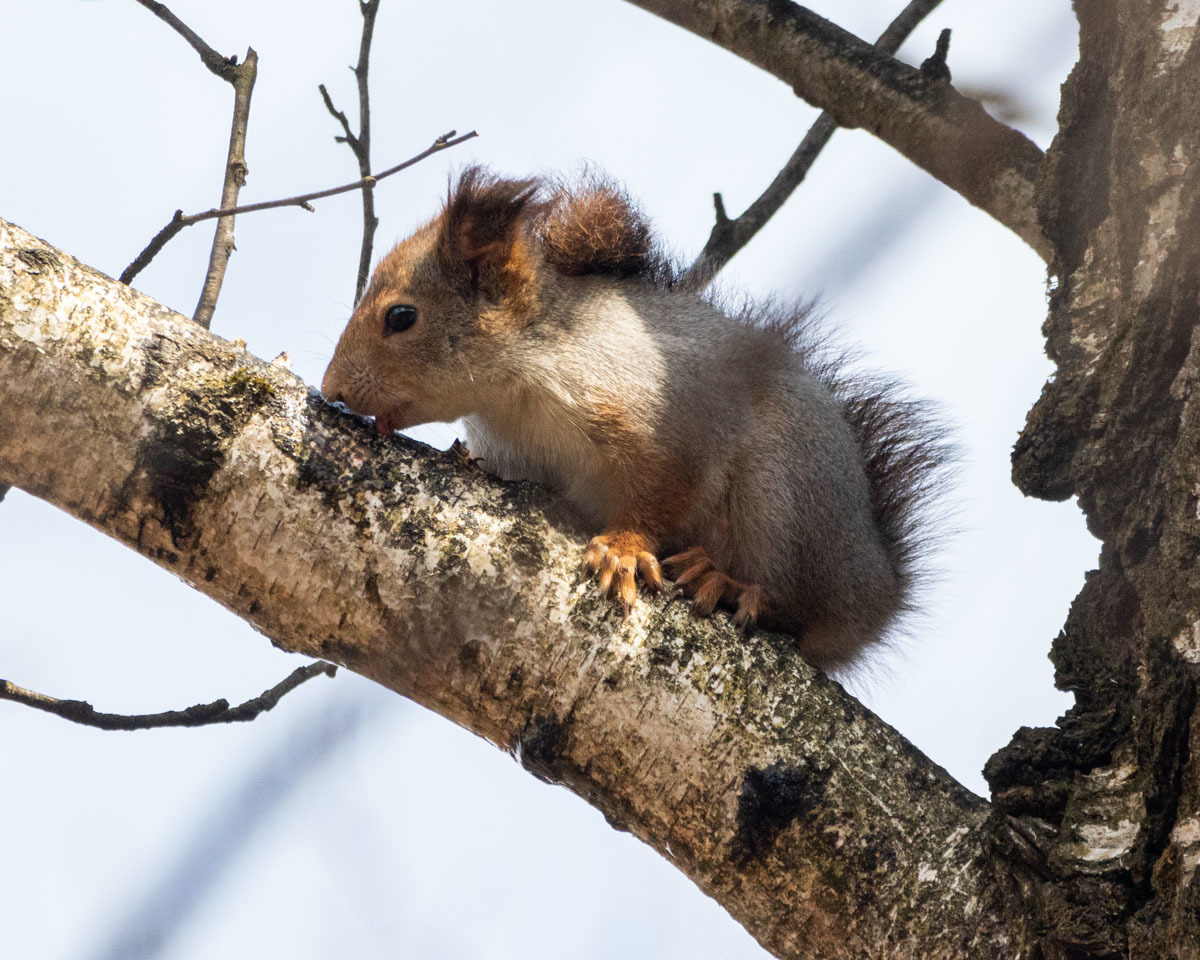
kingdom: Animalia
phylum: Chordata
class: Mammalia
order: Rodentia
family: Sciuridae
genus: Sciurus
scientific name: Sciurus vulgaris
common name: Eurasian red squirrel
